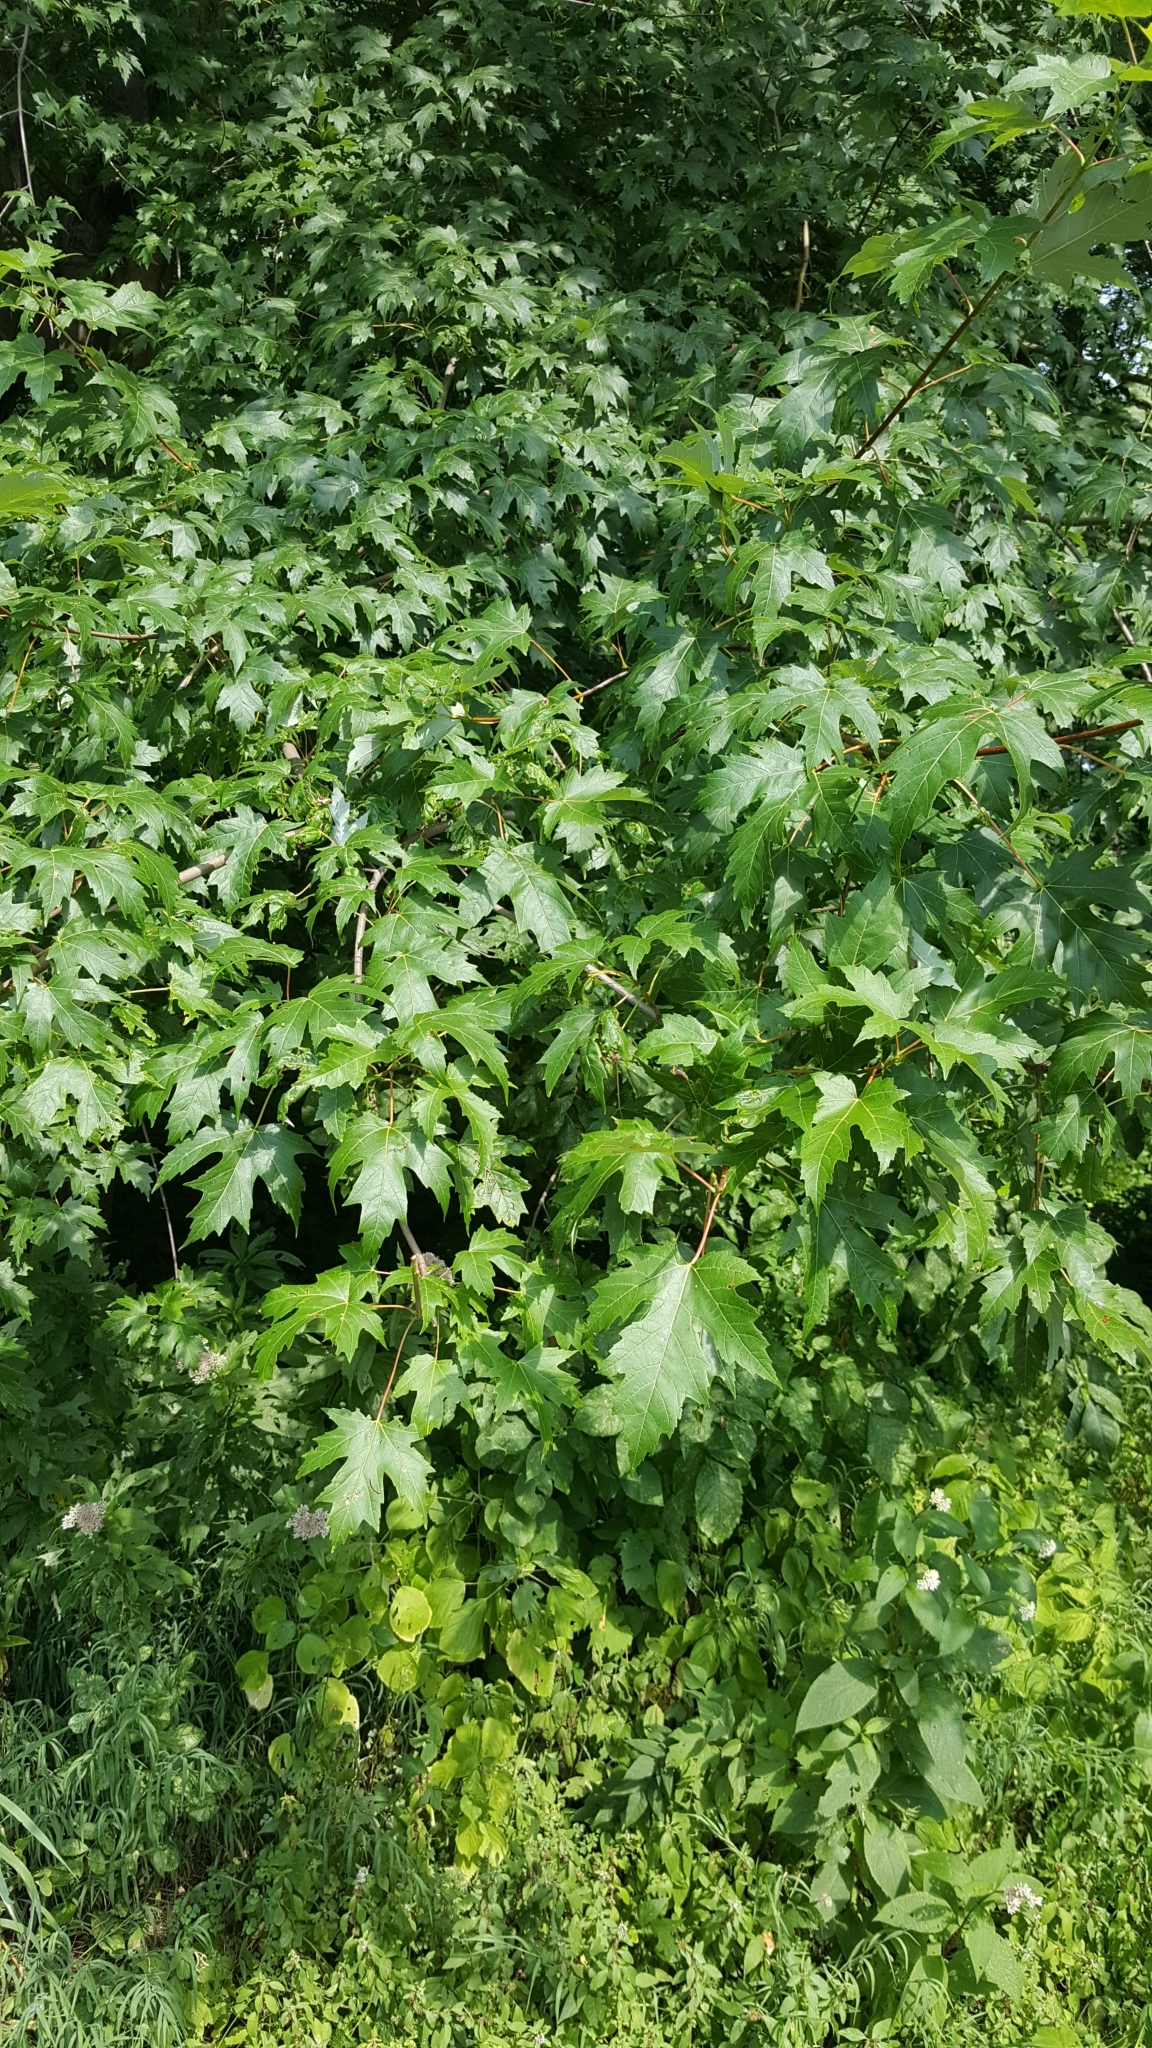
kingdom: Plantae
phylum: Tracheophyta
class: Magnoliopsida
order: Sapindales
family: Sapindaceae
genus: Acer
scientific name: Acer saccharinum
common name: Silver maple
